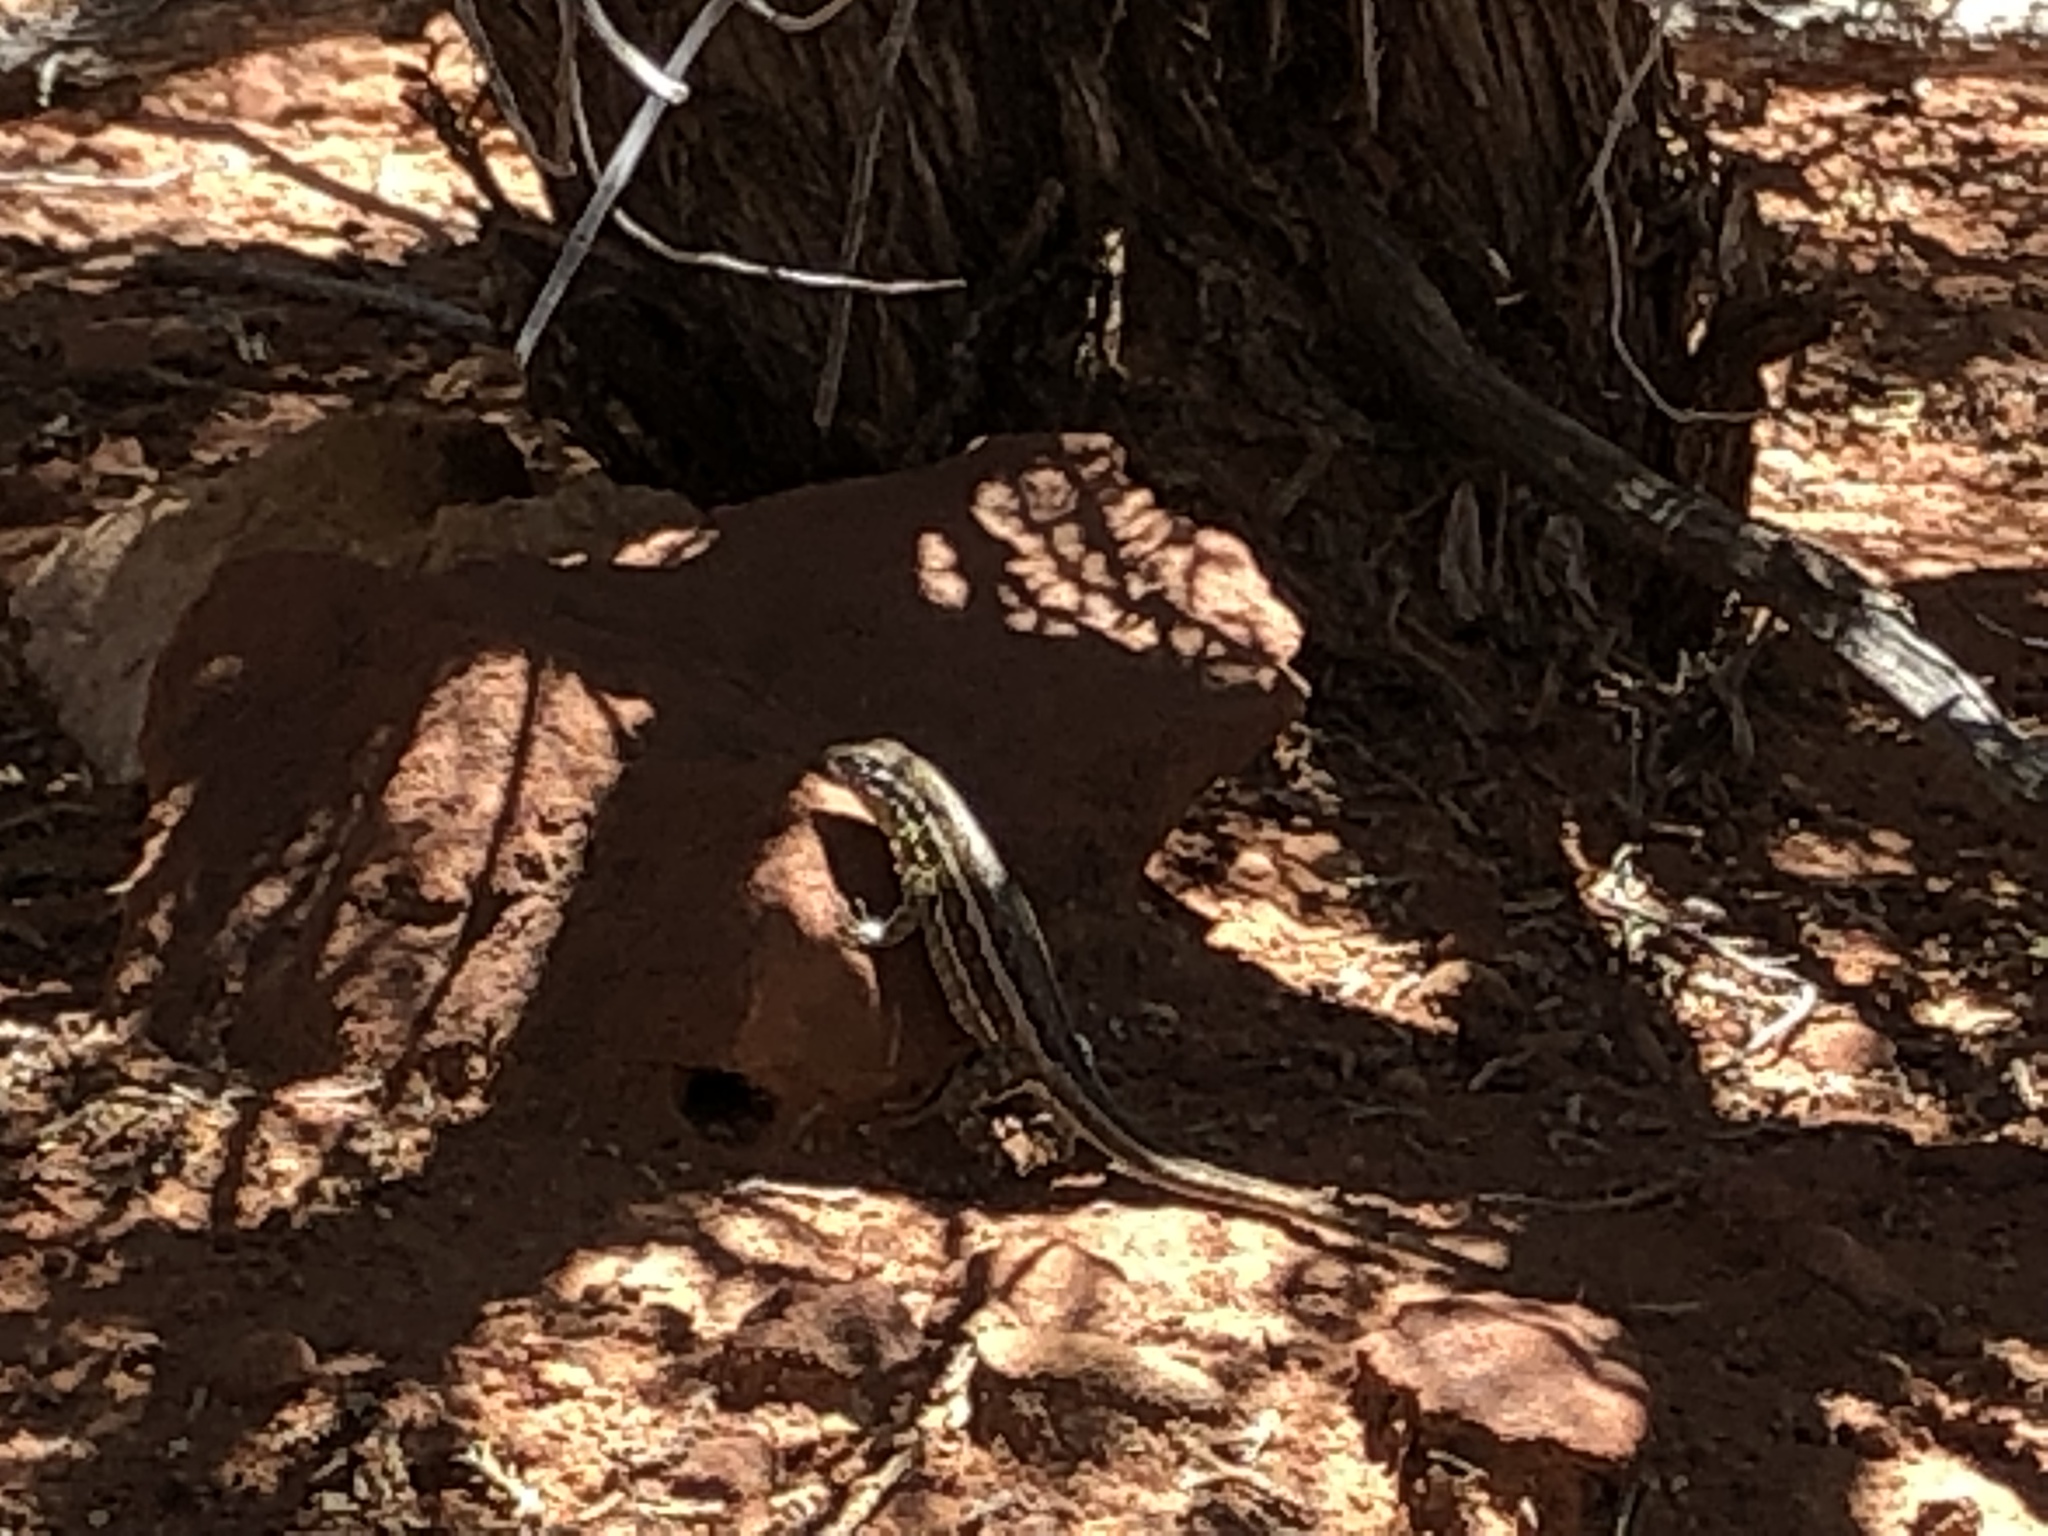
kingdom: Animalia
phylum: Chordata
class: Squamata
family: Phrynosomatidae
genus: Uta
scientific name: Uta stansburiana
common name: Side-blotched lizard
